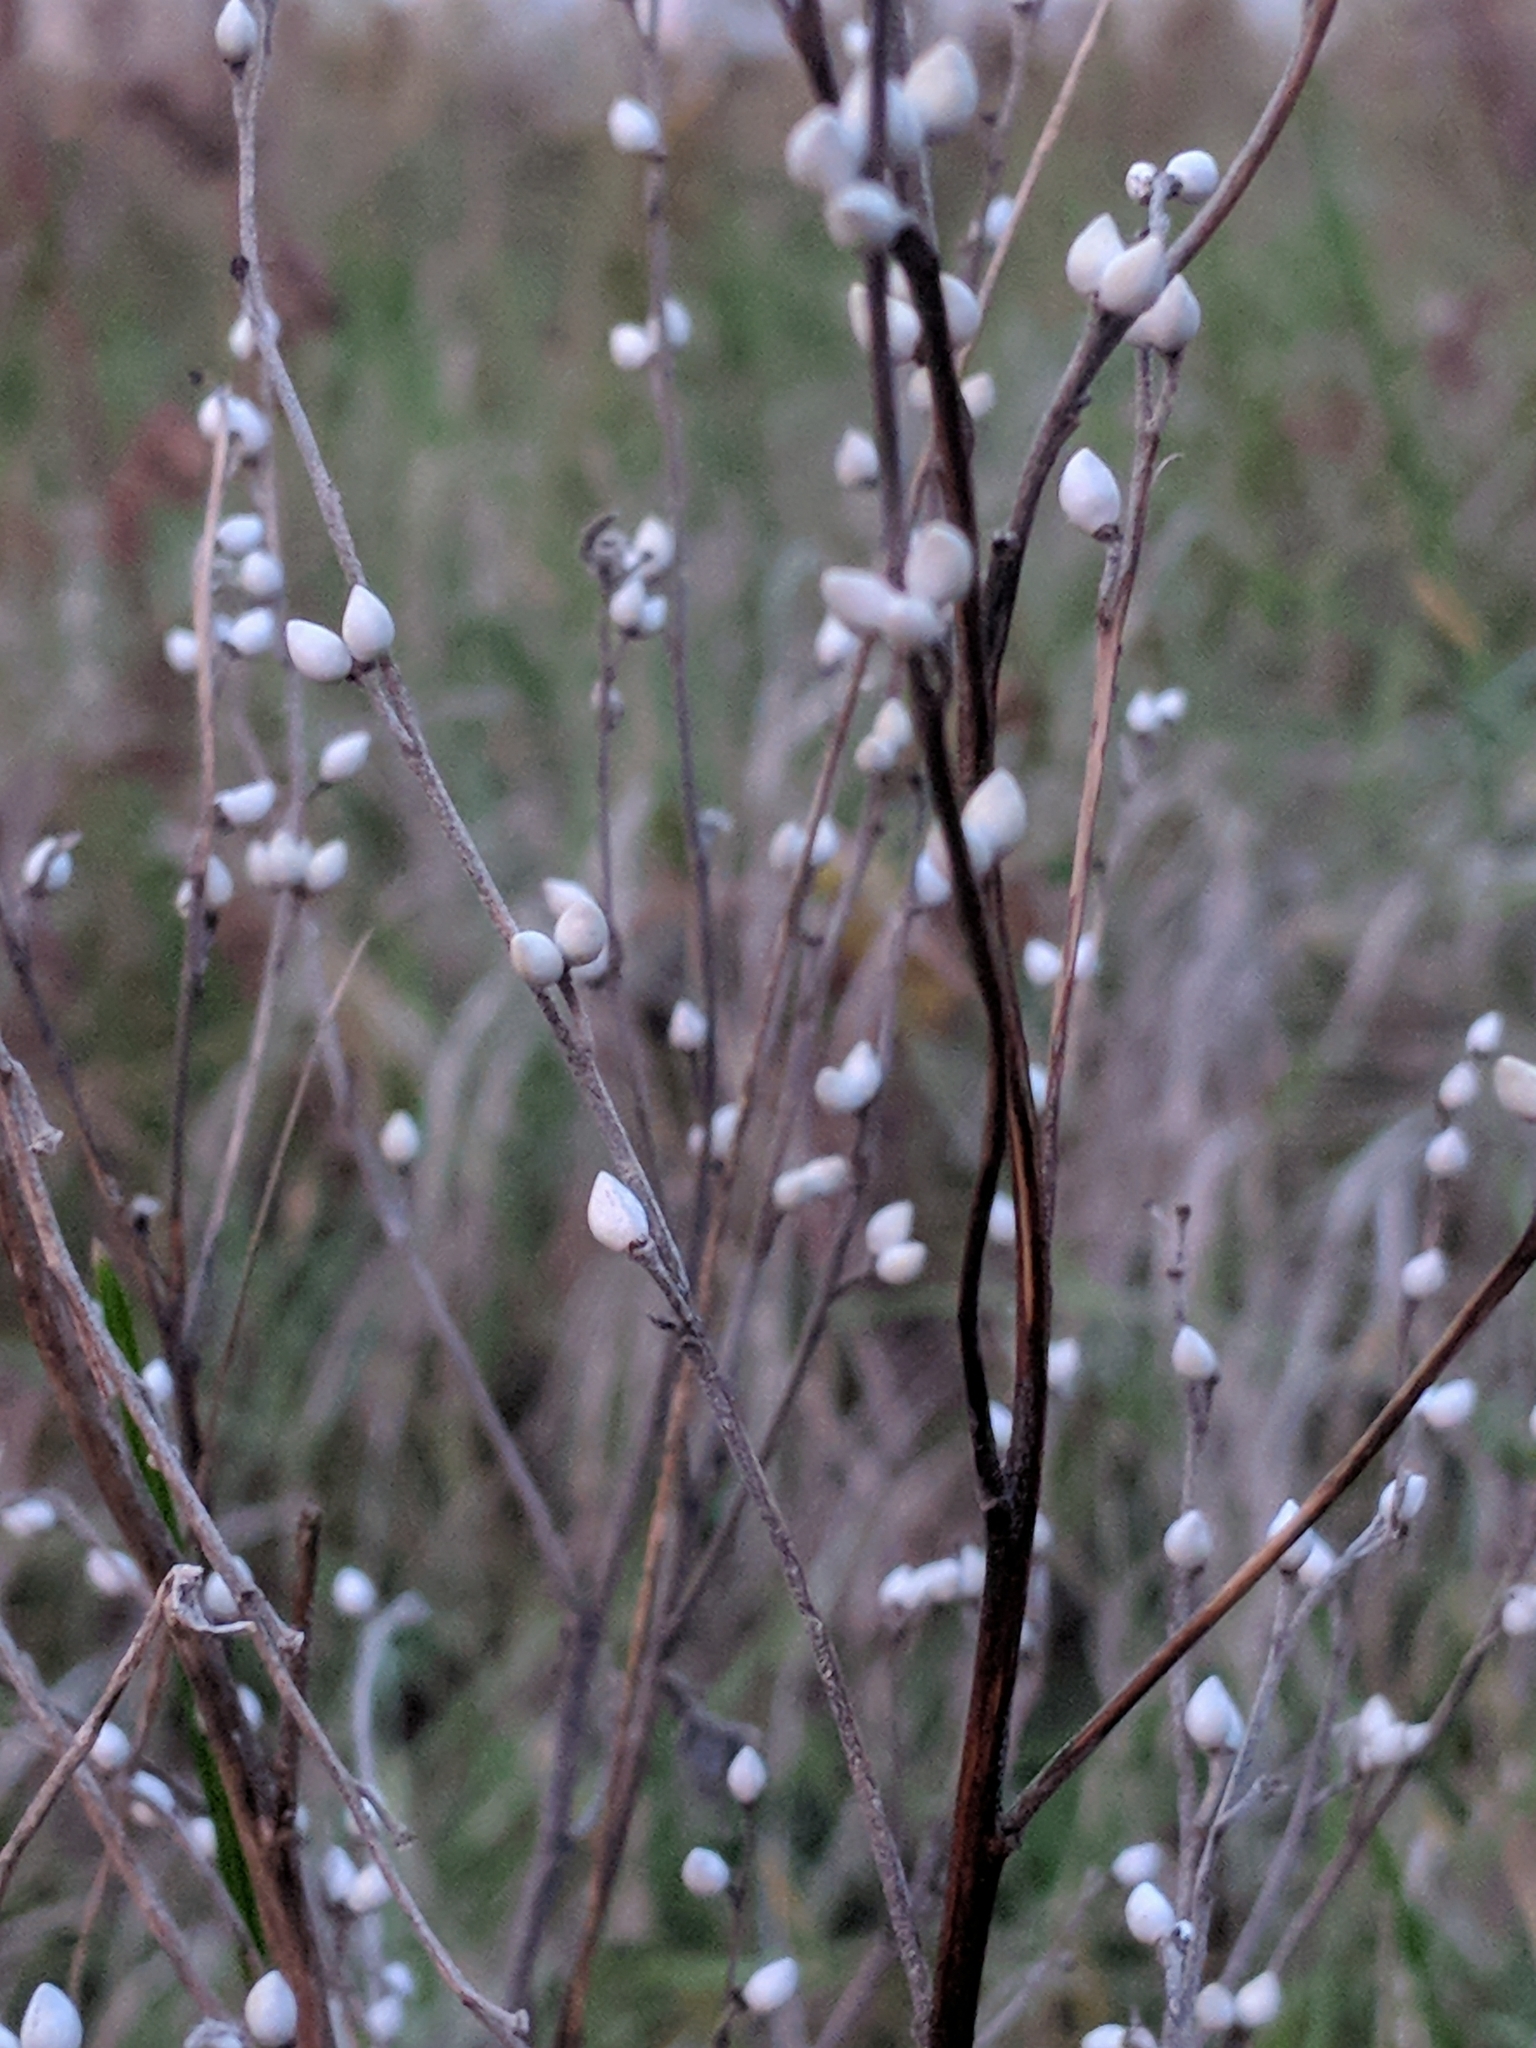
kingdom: Plantae
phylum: Tracheophyta
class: Magnoliopsida
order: Boraginales
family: Boraginaceae
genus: Lithospermum
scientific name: Lithospermum officinale
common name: Common gromwell
